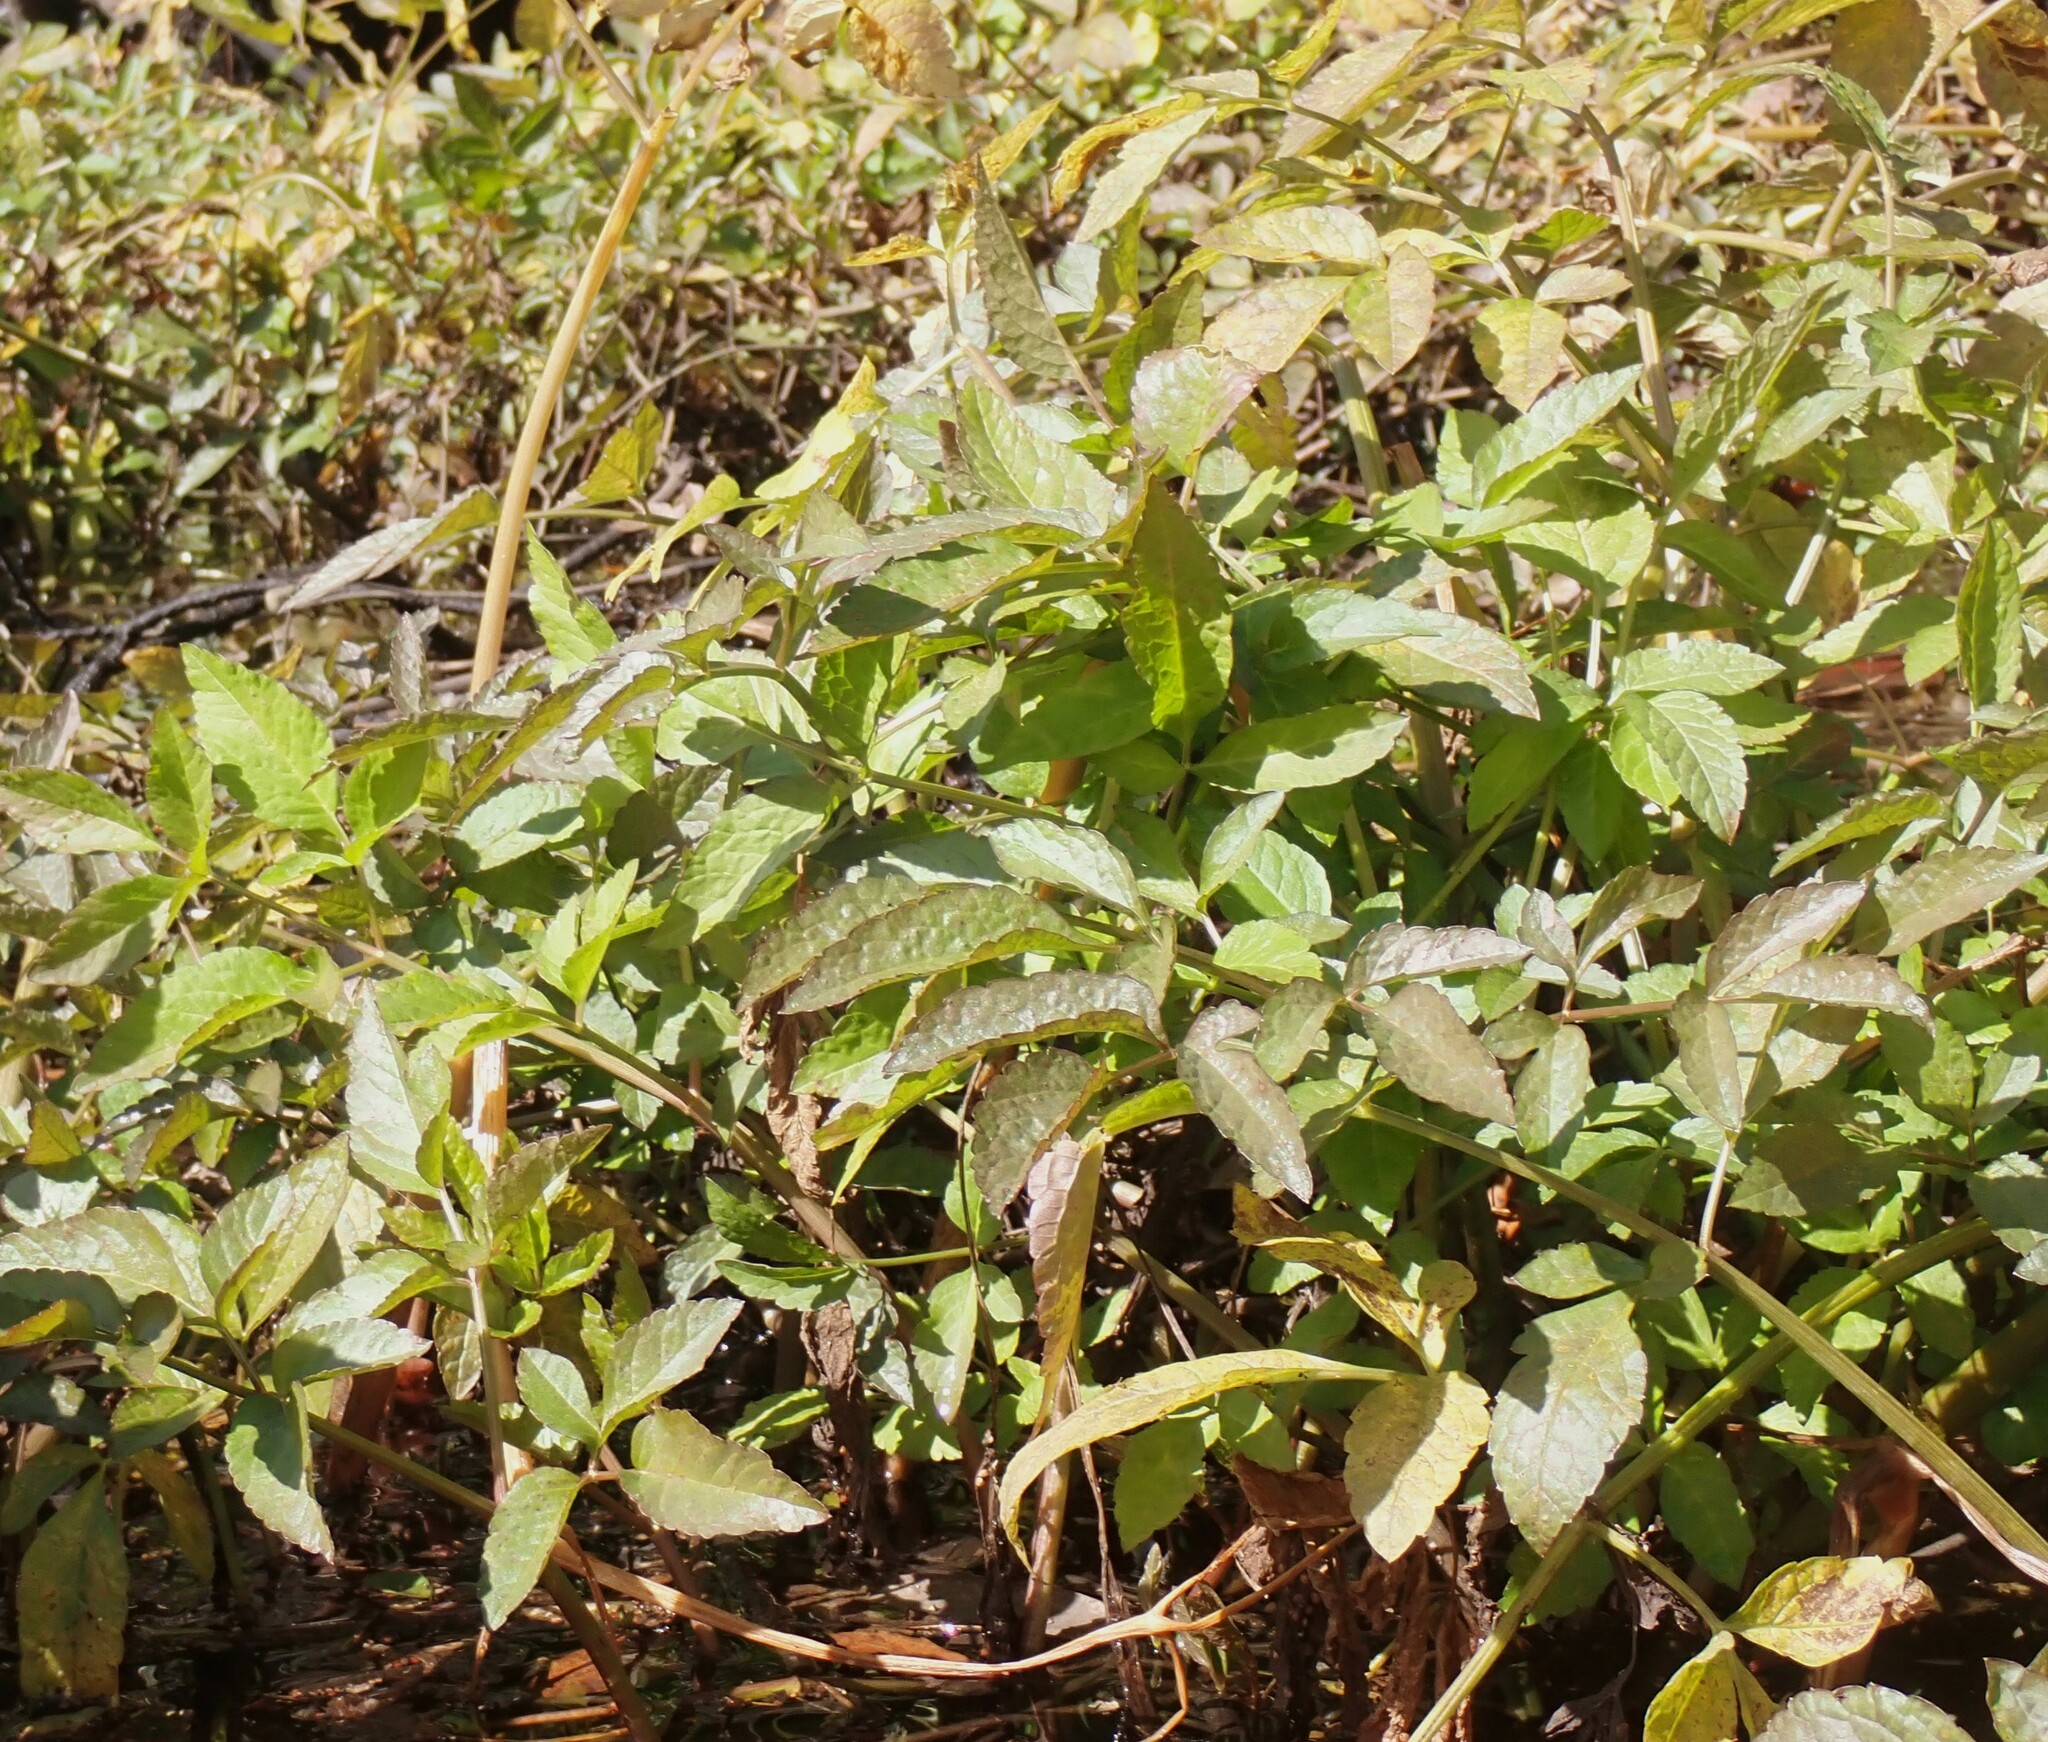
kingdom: Plantae
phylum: Tracheophyta
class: Magnoliopsida
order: Apiales
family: Apiaceae
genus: Cicuta
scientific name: Cicuta maculata
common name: Spotted cowbane
